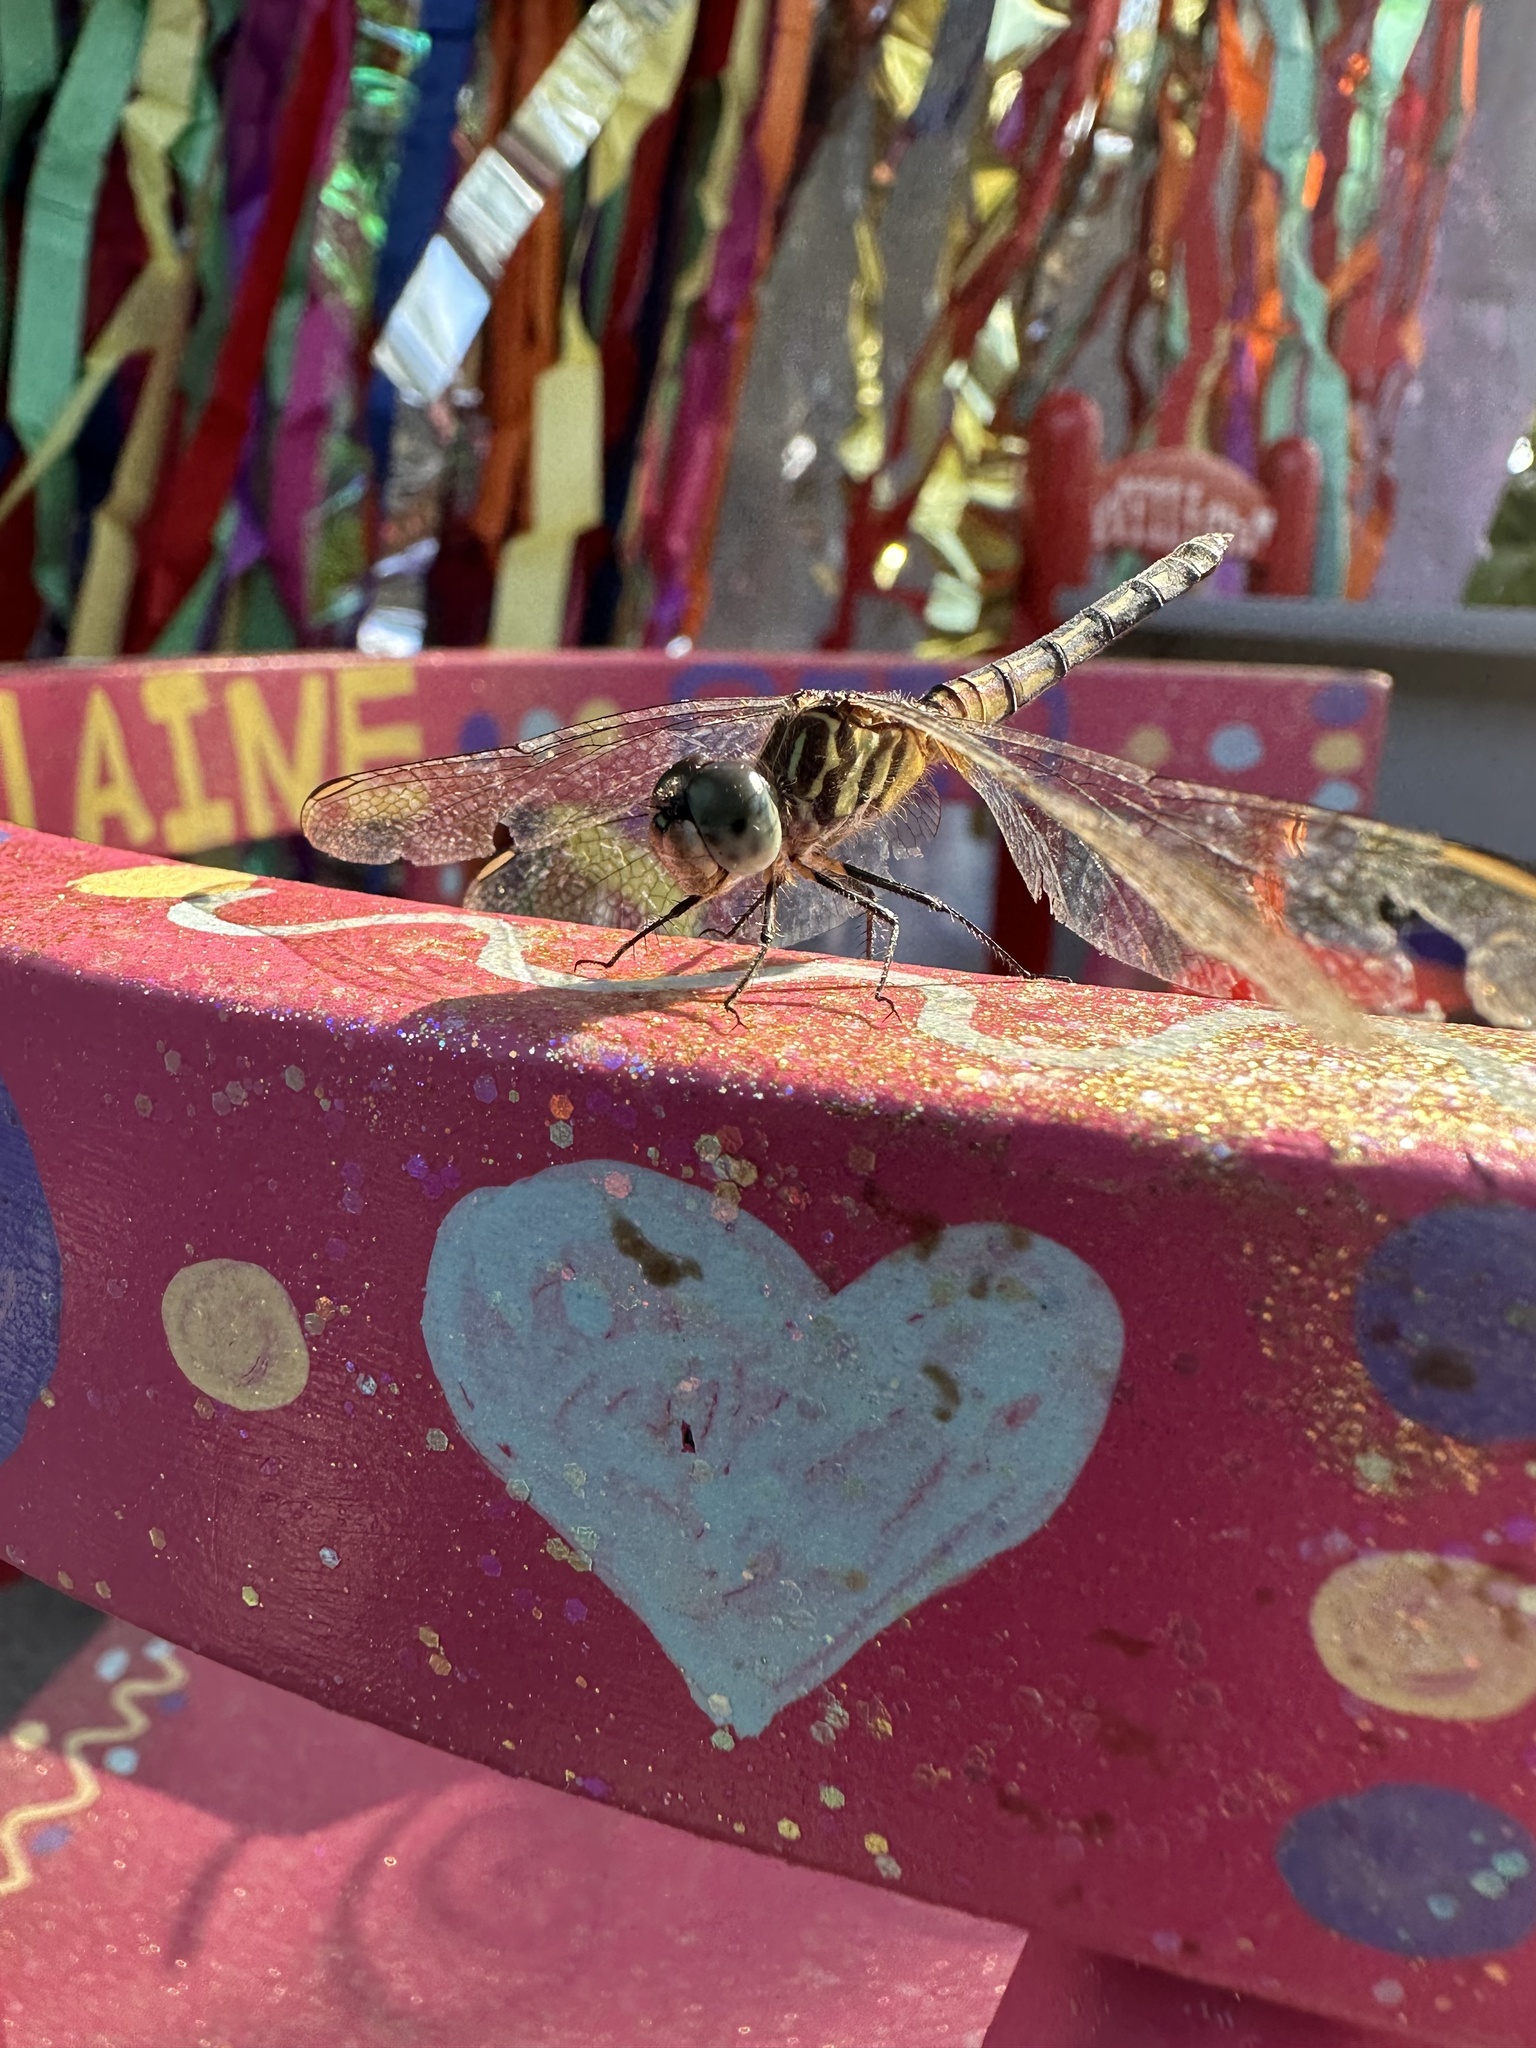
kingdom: Animalia
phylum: Arthropoda
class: Insecta
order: Odonata
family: Libellulidae
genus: Pachydiplax
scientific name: Pachydiplax longipennis
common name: Blue dasher
